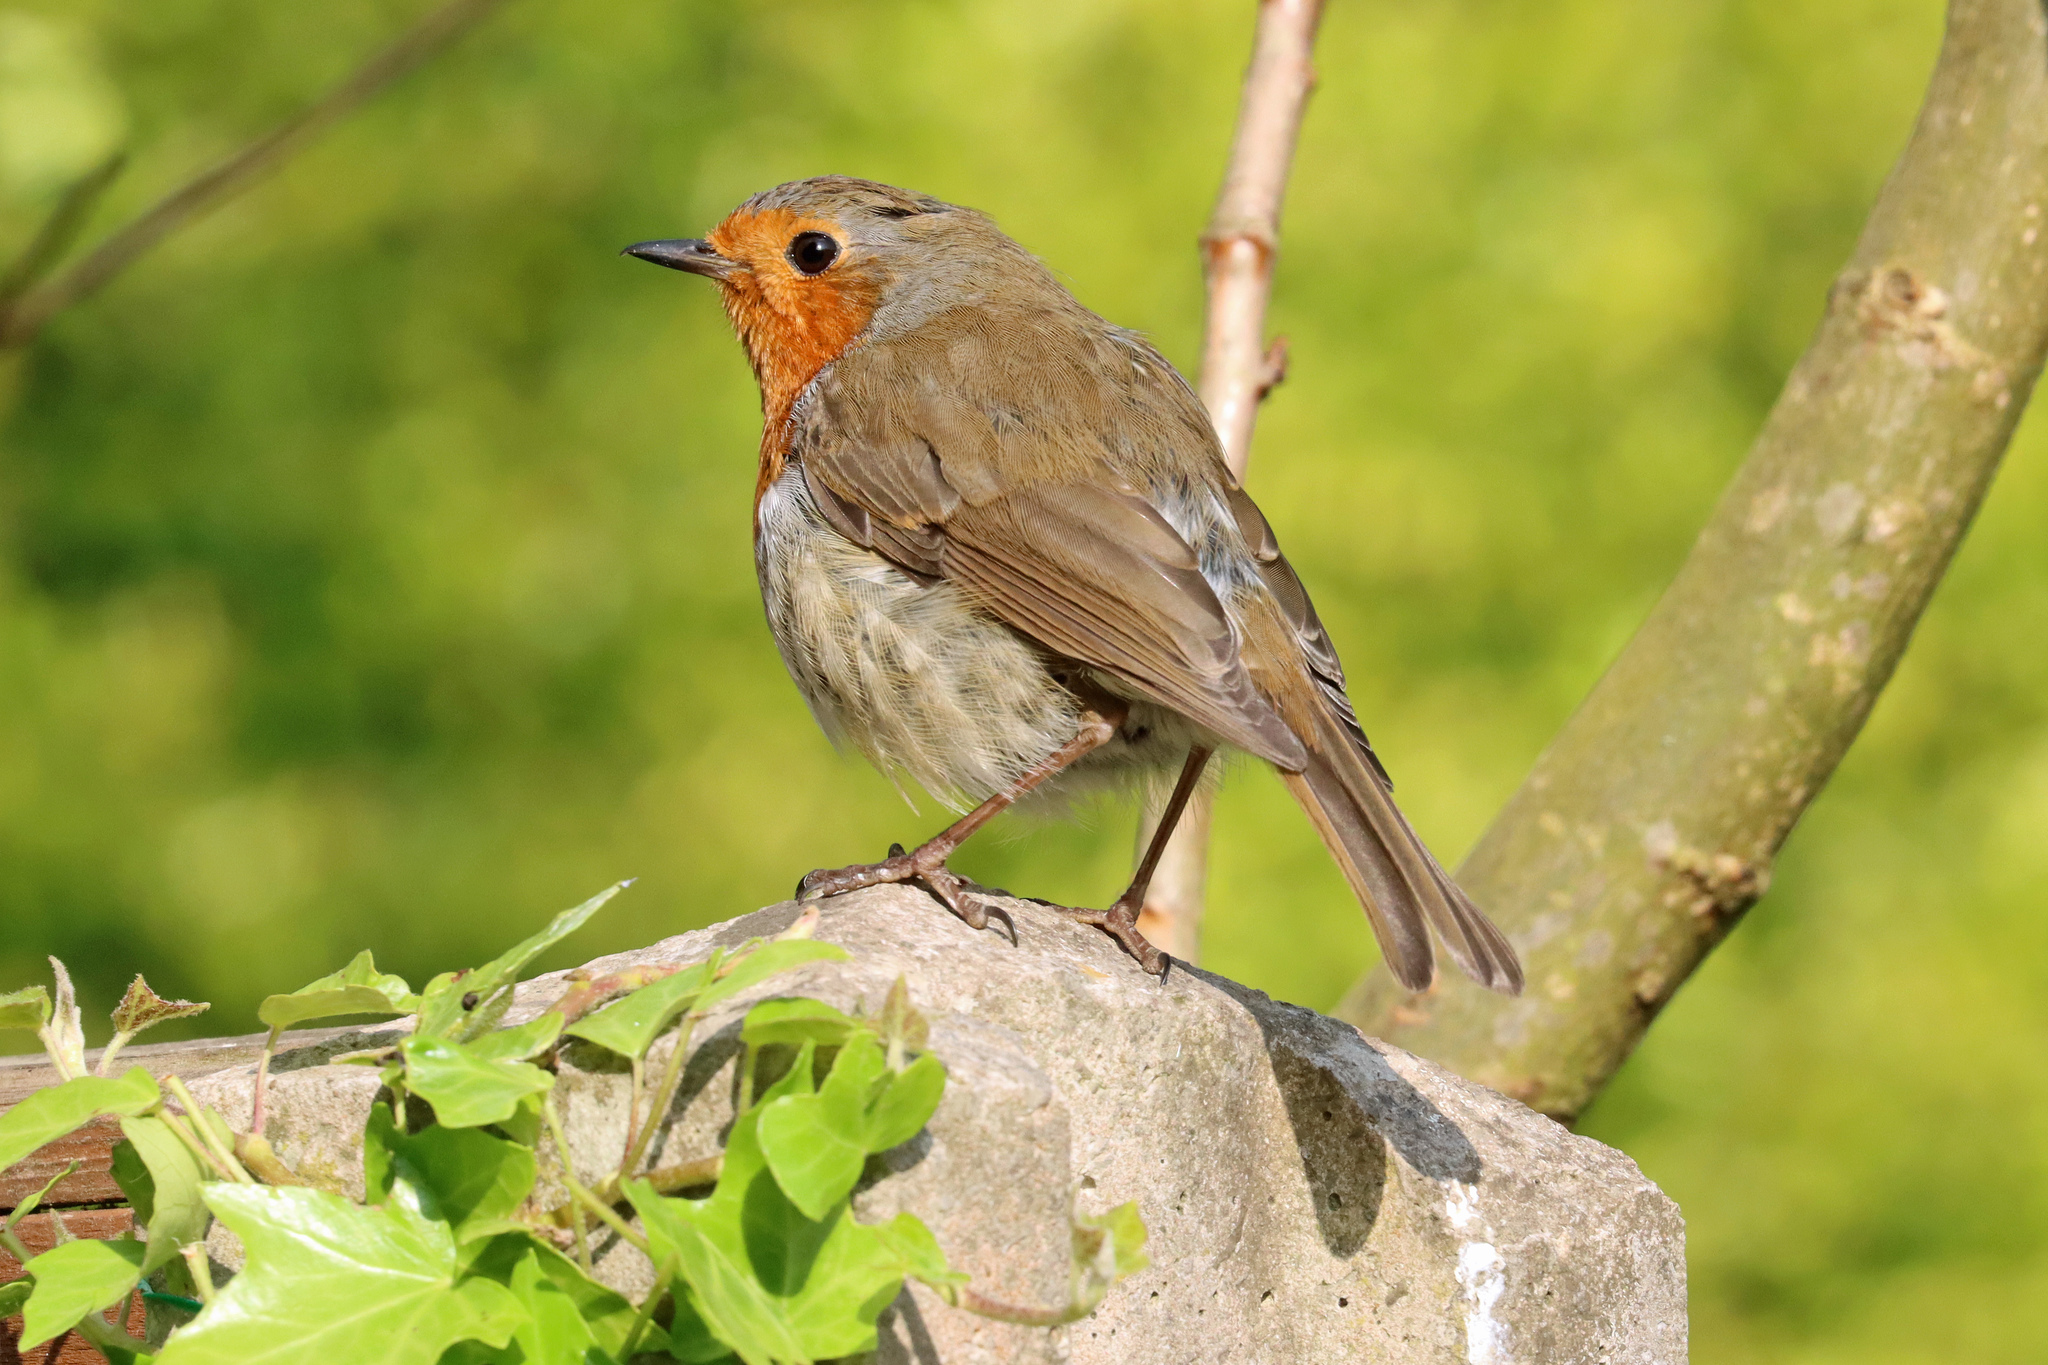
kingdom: Animalia
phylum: Chordata
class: Aves
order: Passeriformes
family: Muscicapidae
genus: Erithacus
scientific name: Erithacus rubecula
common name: European robin
